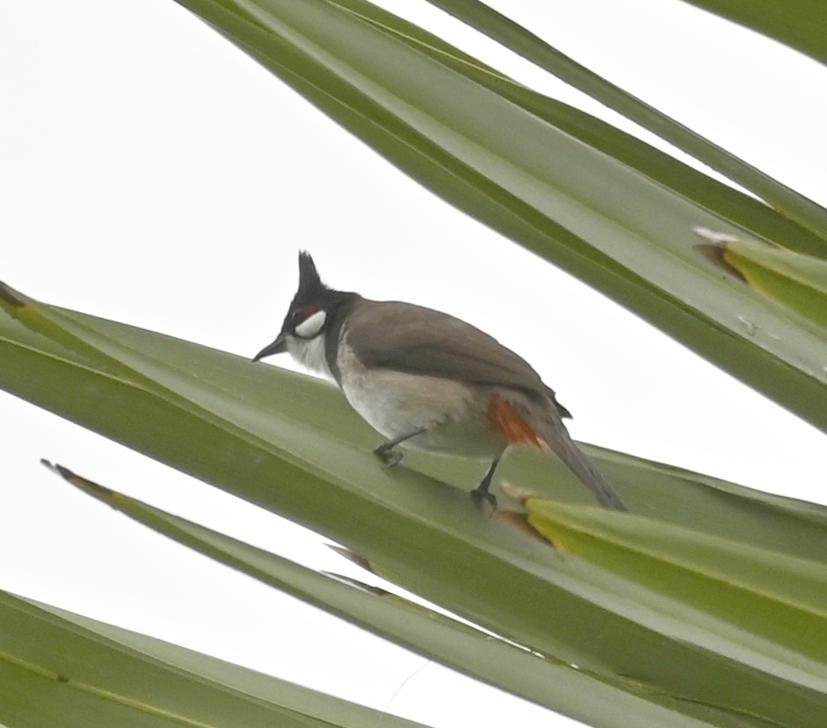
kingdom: Animalia
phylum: Chordata
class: Aves
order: Passeriformes
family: Pycnonotidae
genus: Pycnonotus
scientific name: Pycnonotus jocosus
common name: Red-whiskered bulbul
